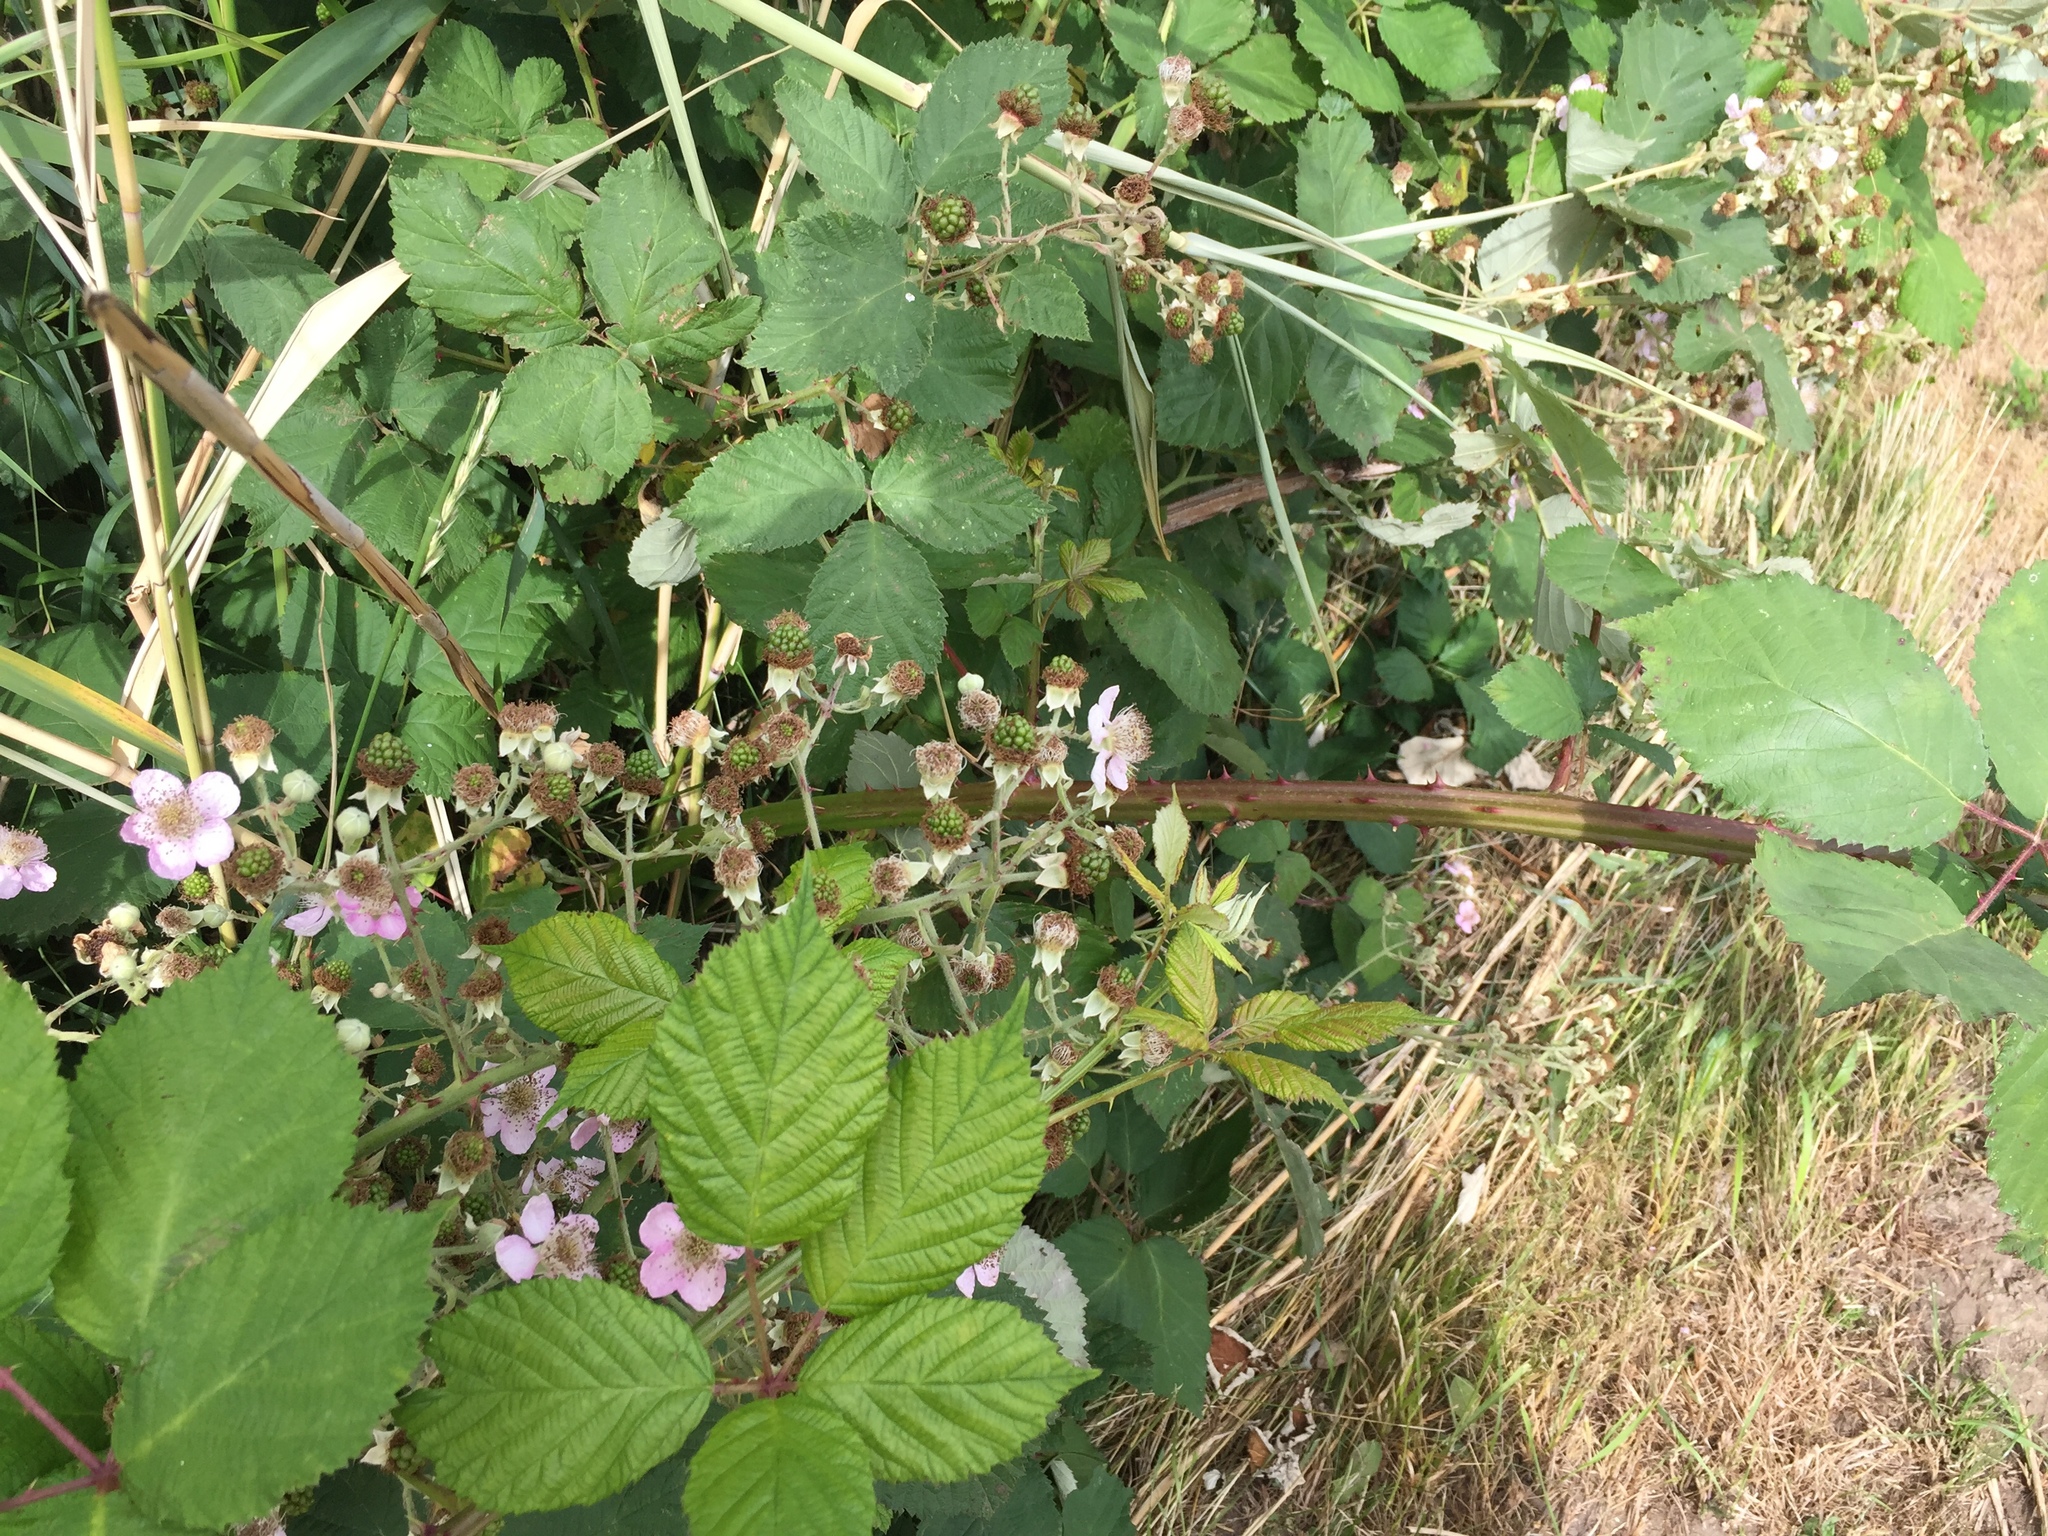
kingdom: Plantae
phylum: Tracheophyta
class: Magnoliopsida
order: Rosales
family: Rosaceae
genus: Rubus
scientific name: Rubus armeniacus
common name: Himalayan blackberry
